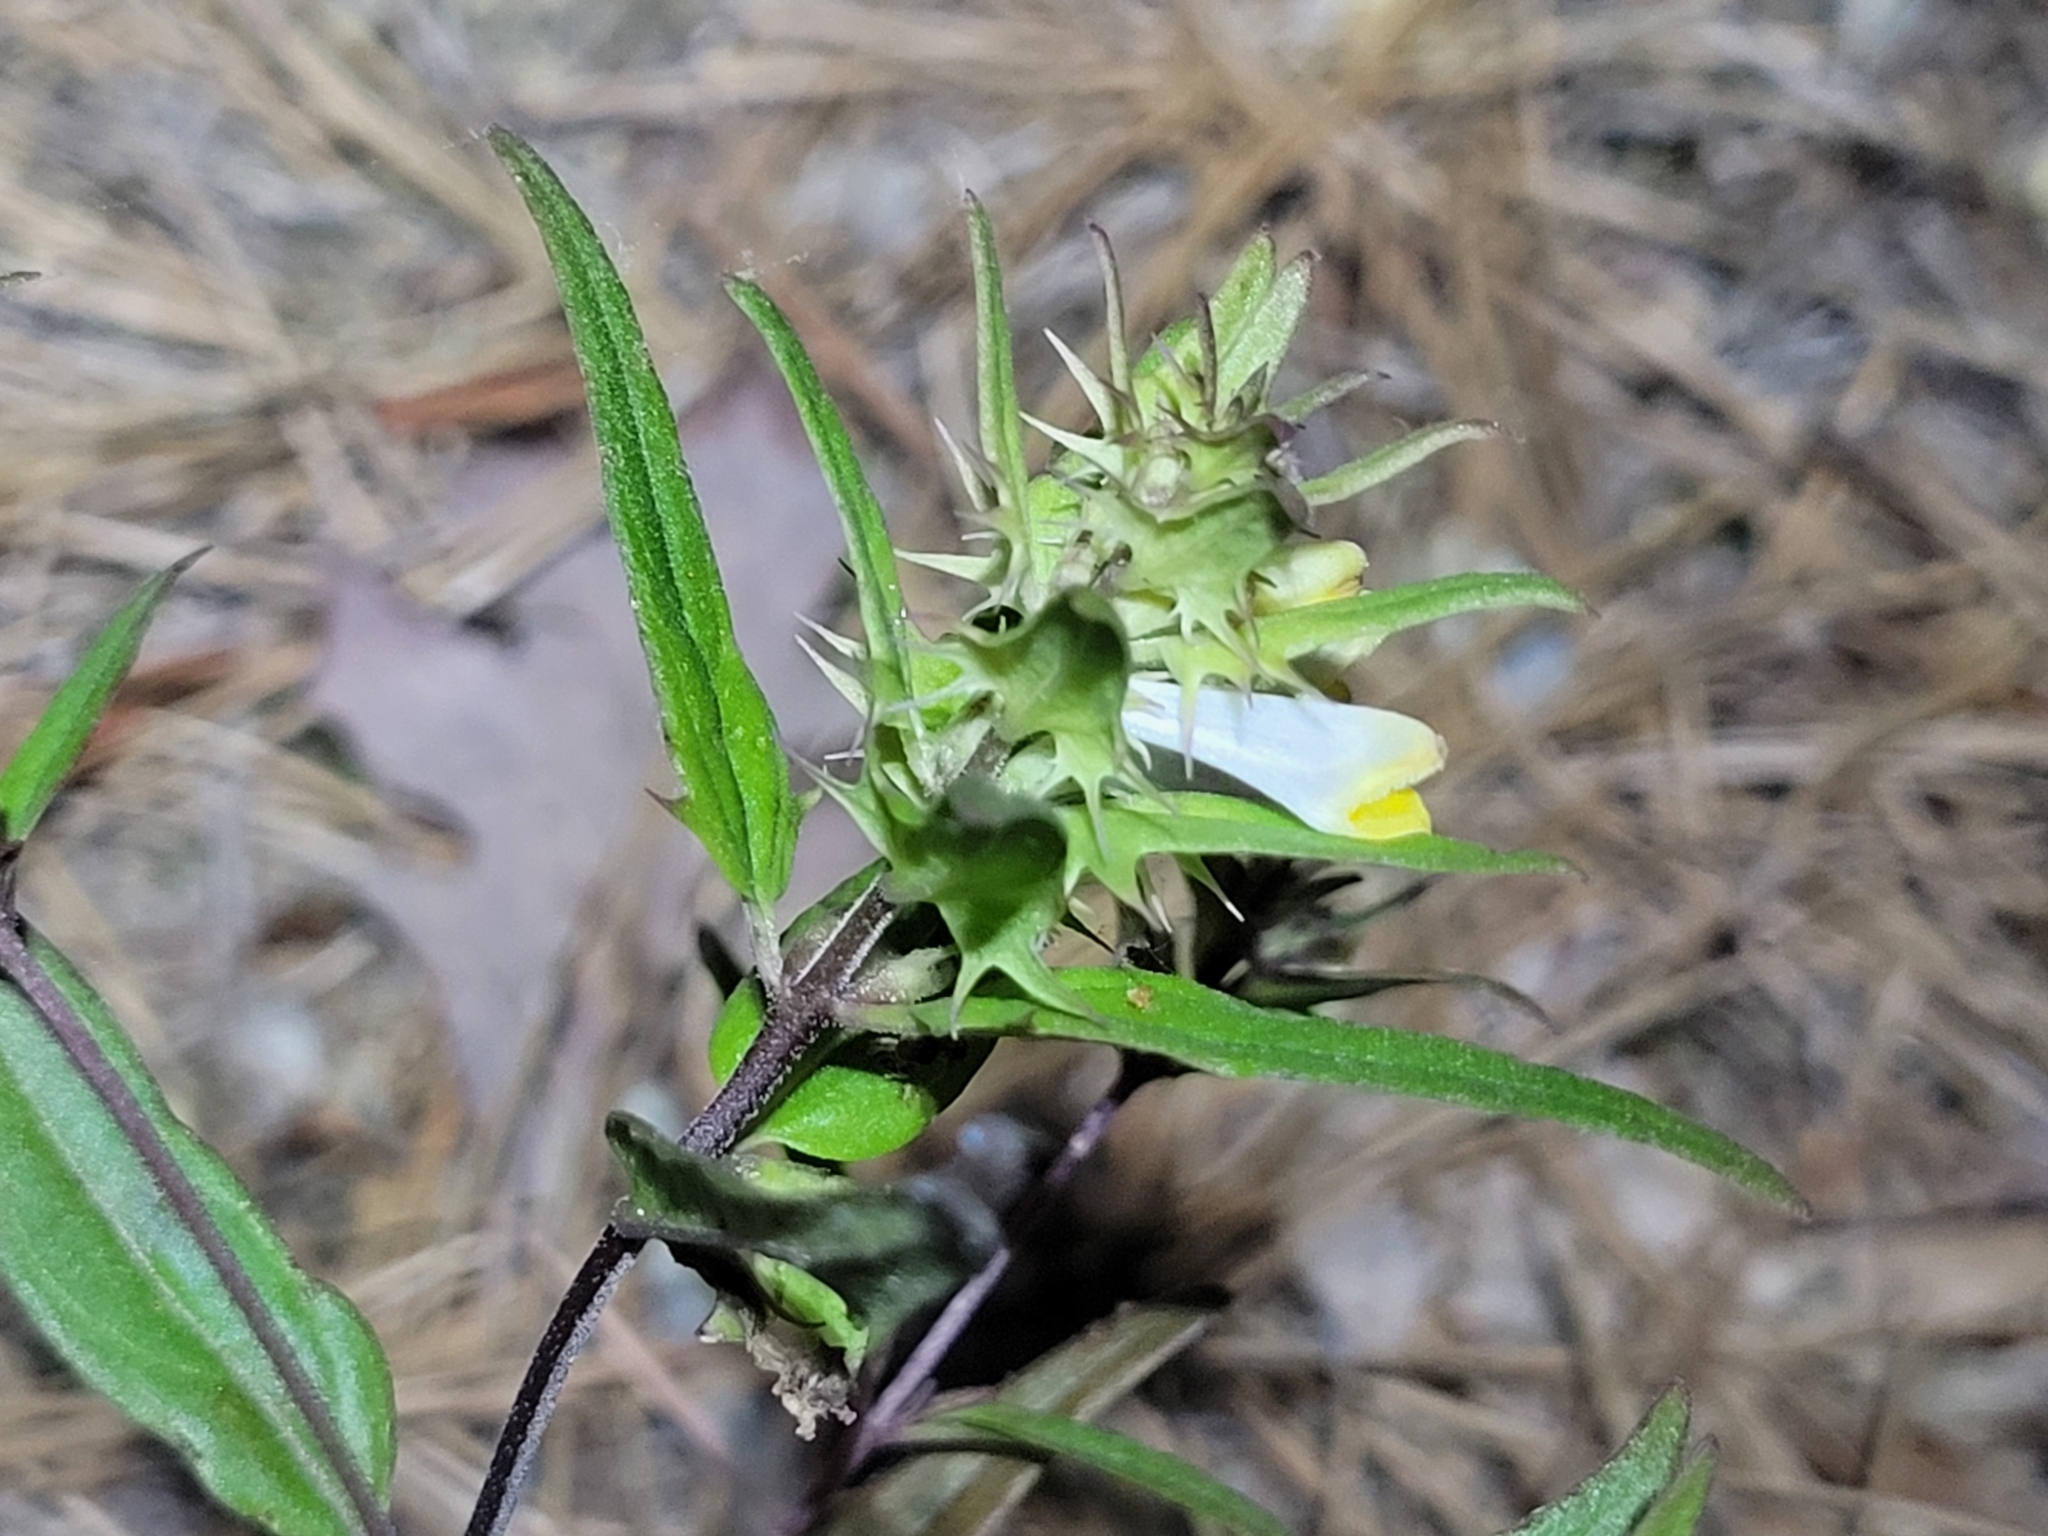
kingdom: Plantae
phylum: Tracheophyta
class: Magnoliopsida
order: Lamiales
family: Orobanchaceae
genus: Melampyrum
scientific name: Melampyrum lineare
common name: American cow-wheat
